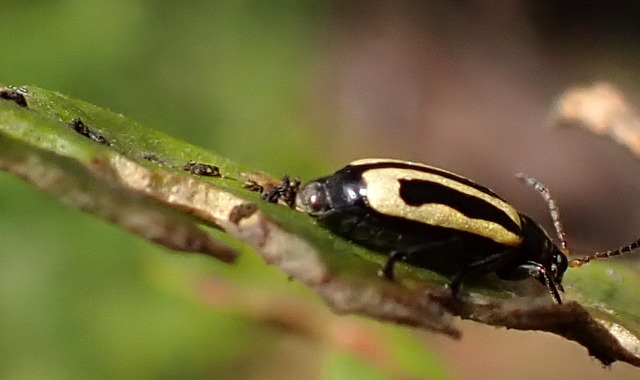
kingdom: Animalia
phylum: Arthropoda
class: Insecta
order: Coleoptera
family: Chrysomelidae
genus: Agasicles
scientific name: Agasicles hygrophila
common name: Alligatorweed flea beetle
